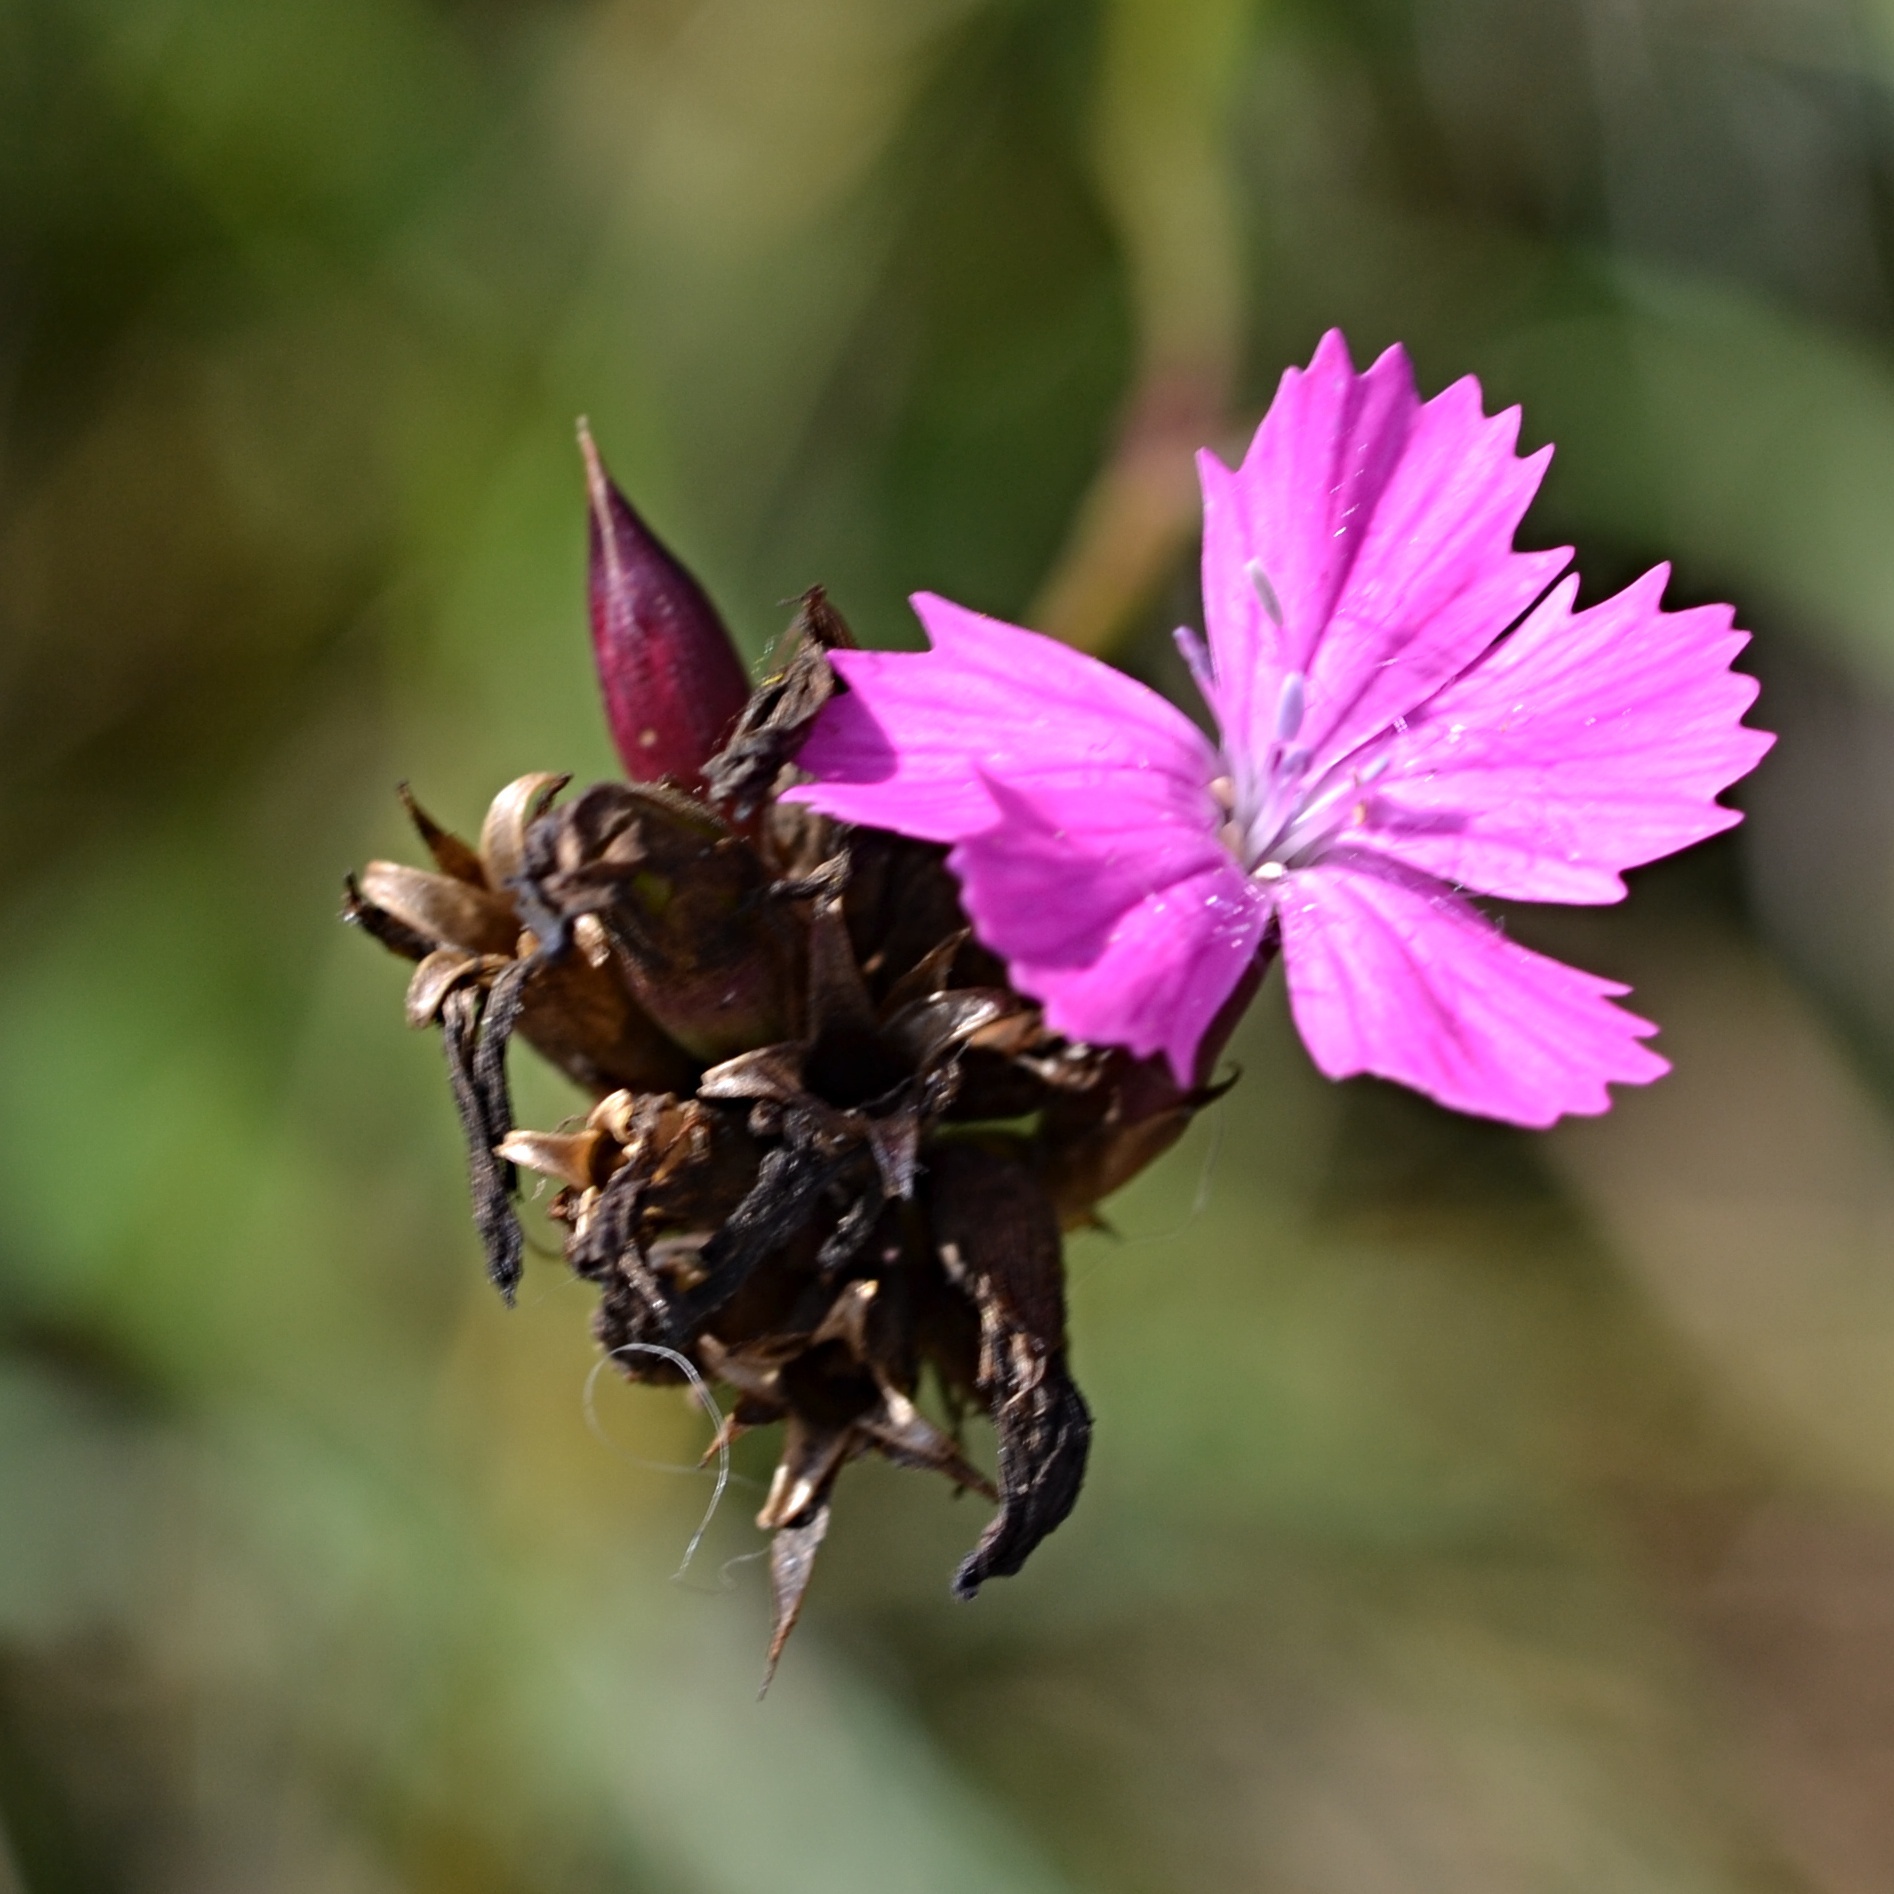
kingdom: Plantae
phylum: Tracheophyta
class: Magnoliopsida
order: Caryophyllales
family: Caryophyllaceae
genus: Dianthus
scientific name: Dianthus carthusianorum
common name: Carthusian pink
